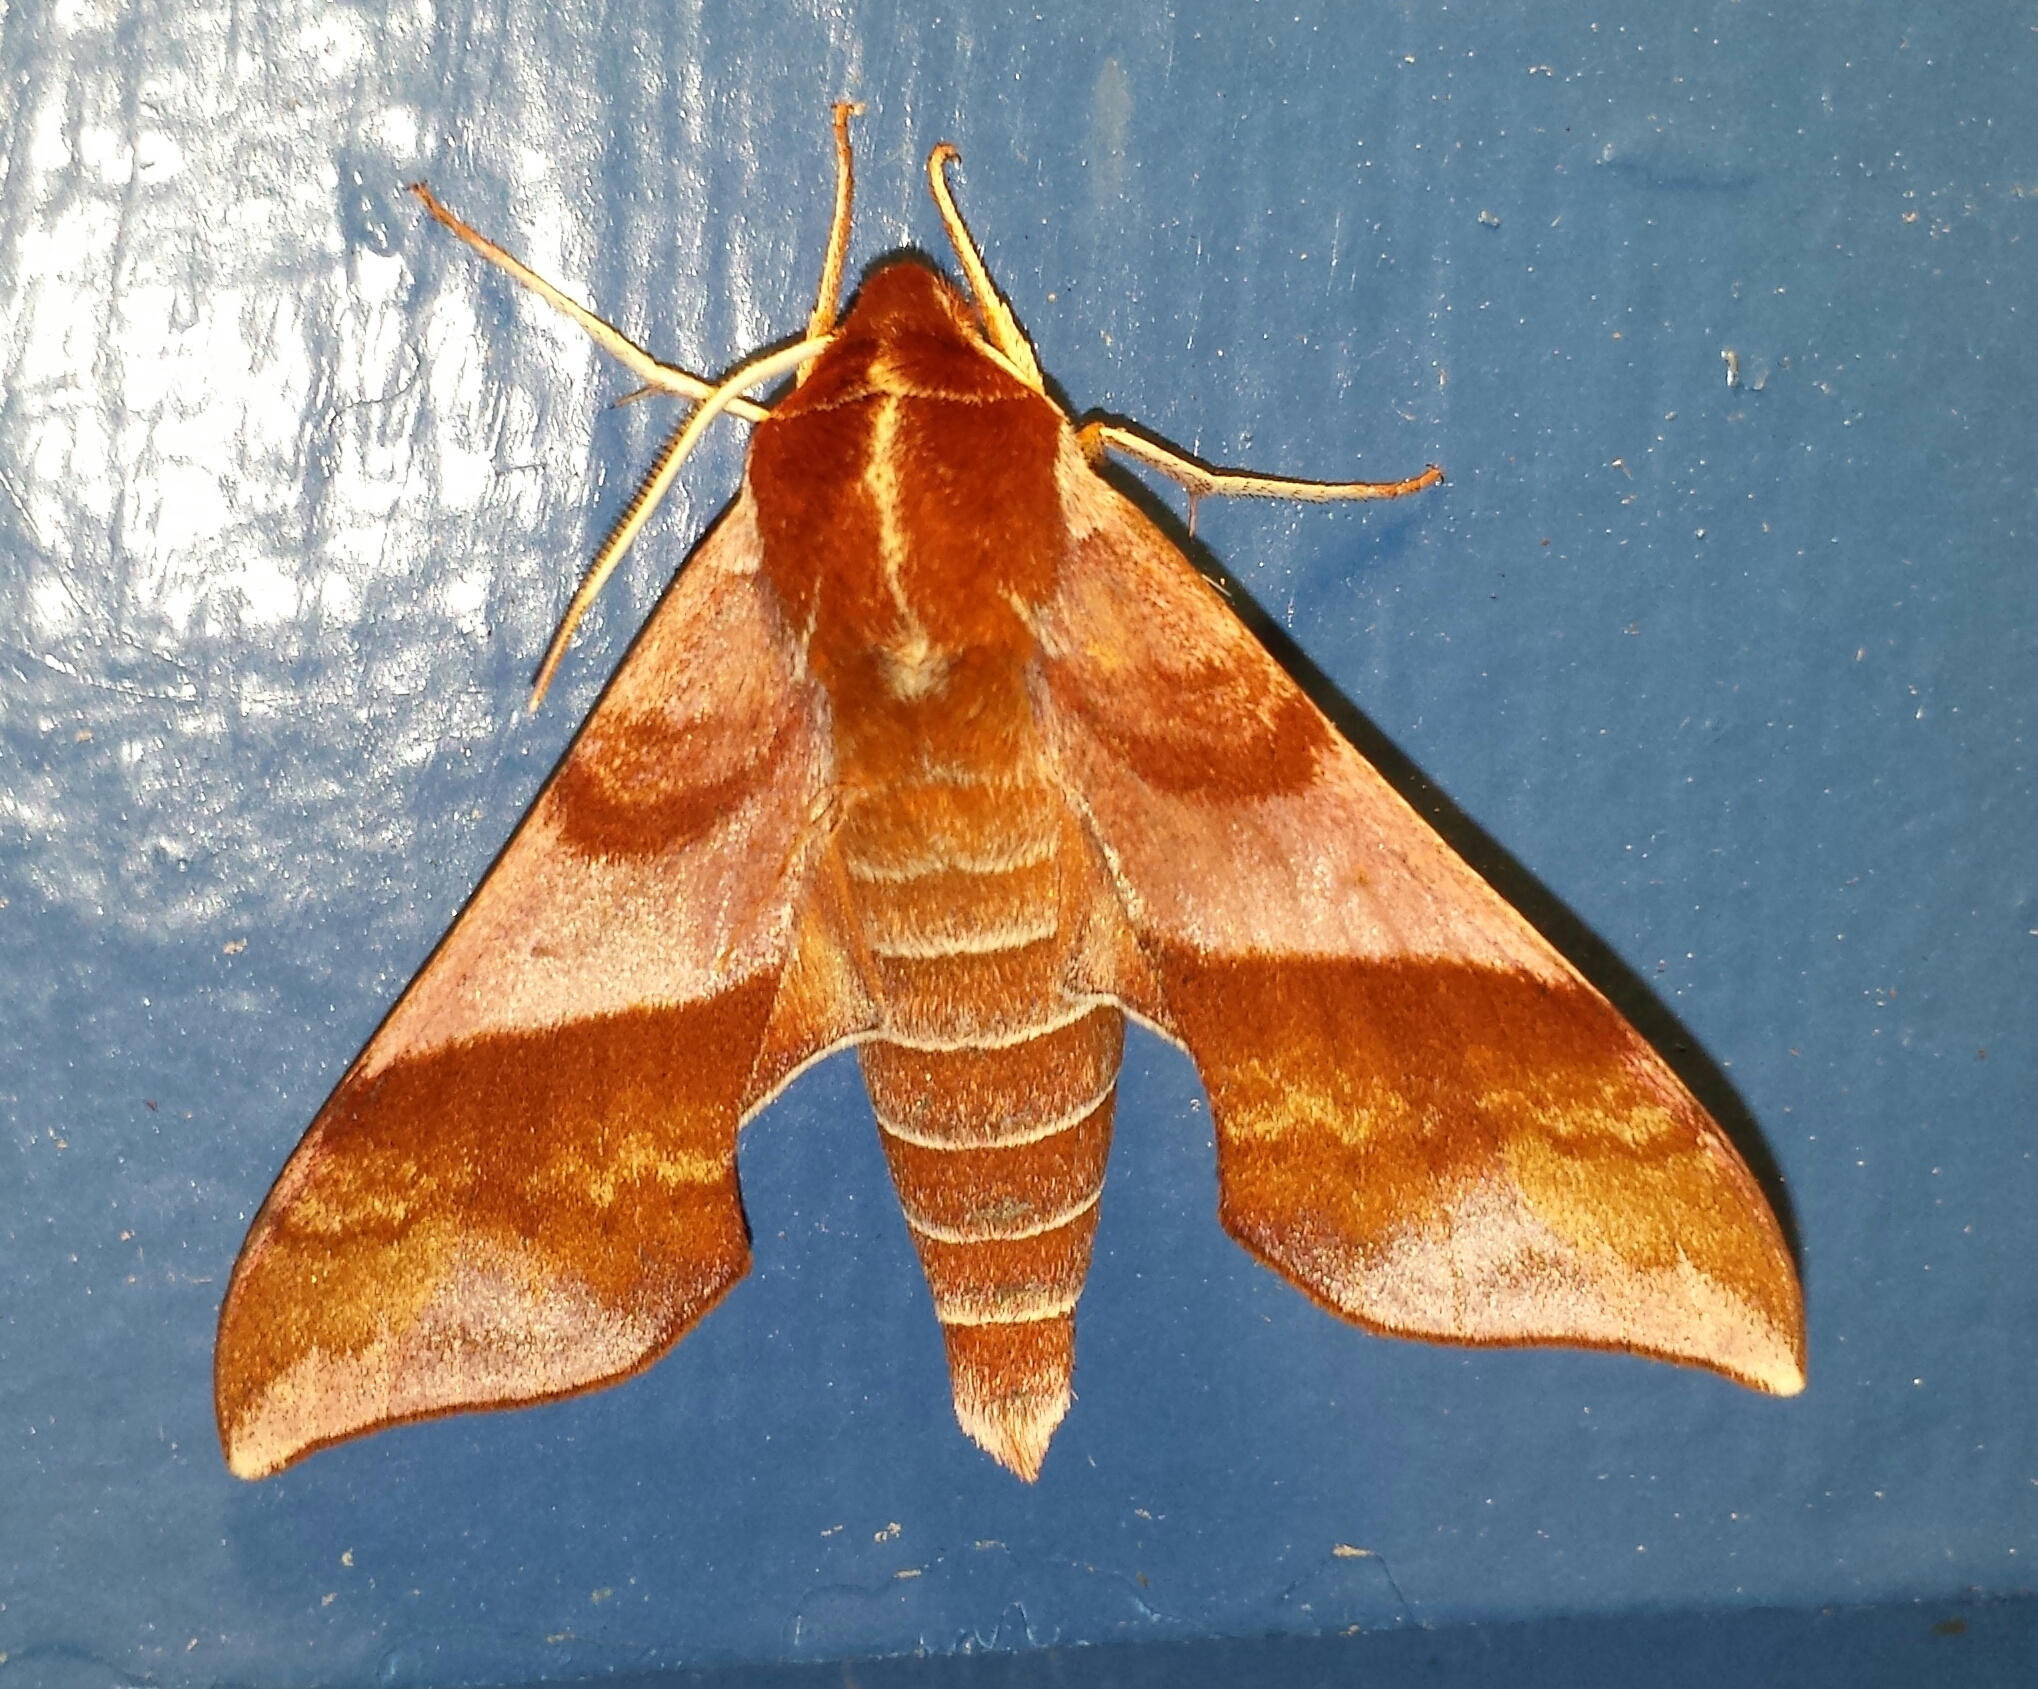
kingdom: Animalia
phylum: Arthropoda
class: Insecta
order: Lepidoptera
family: Sphingidae
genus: Darapsa
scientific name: Darapsa choerilus
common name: Azalea sphinx
